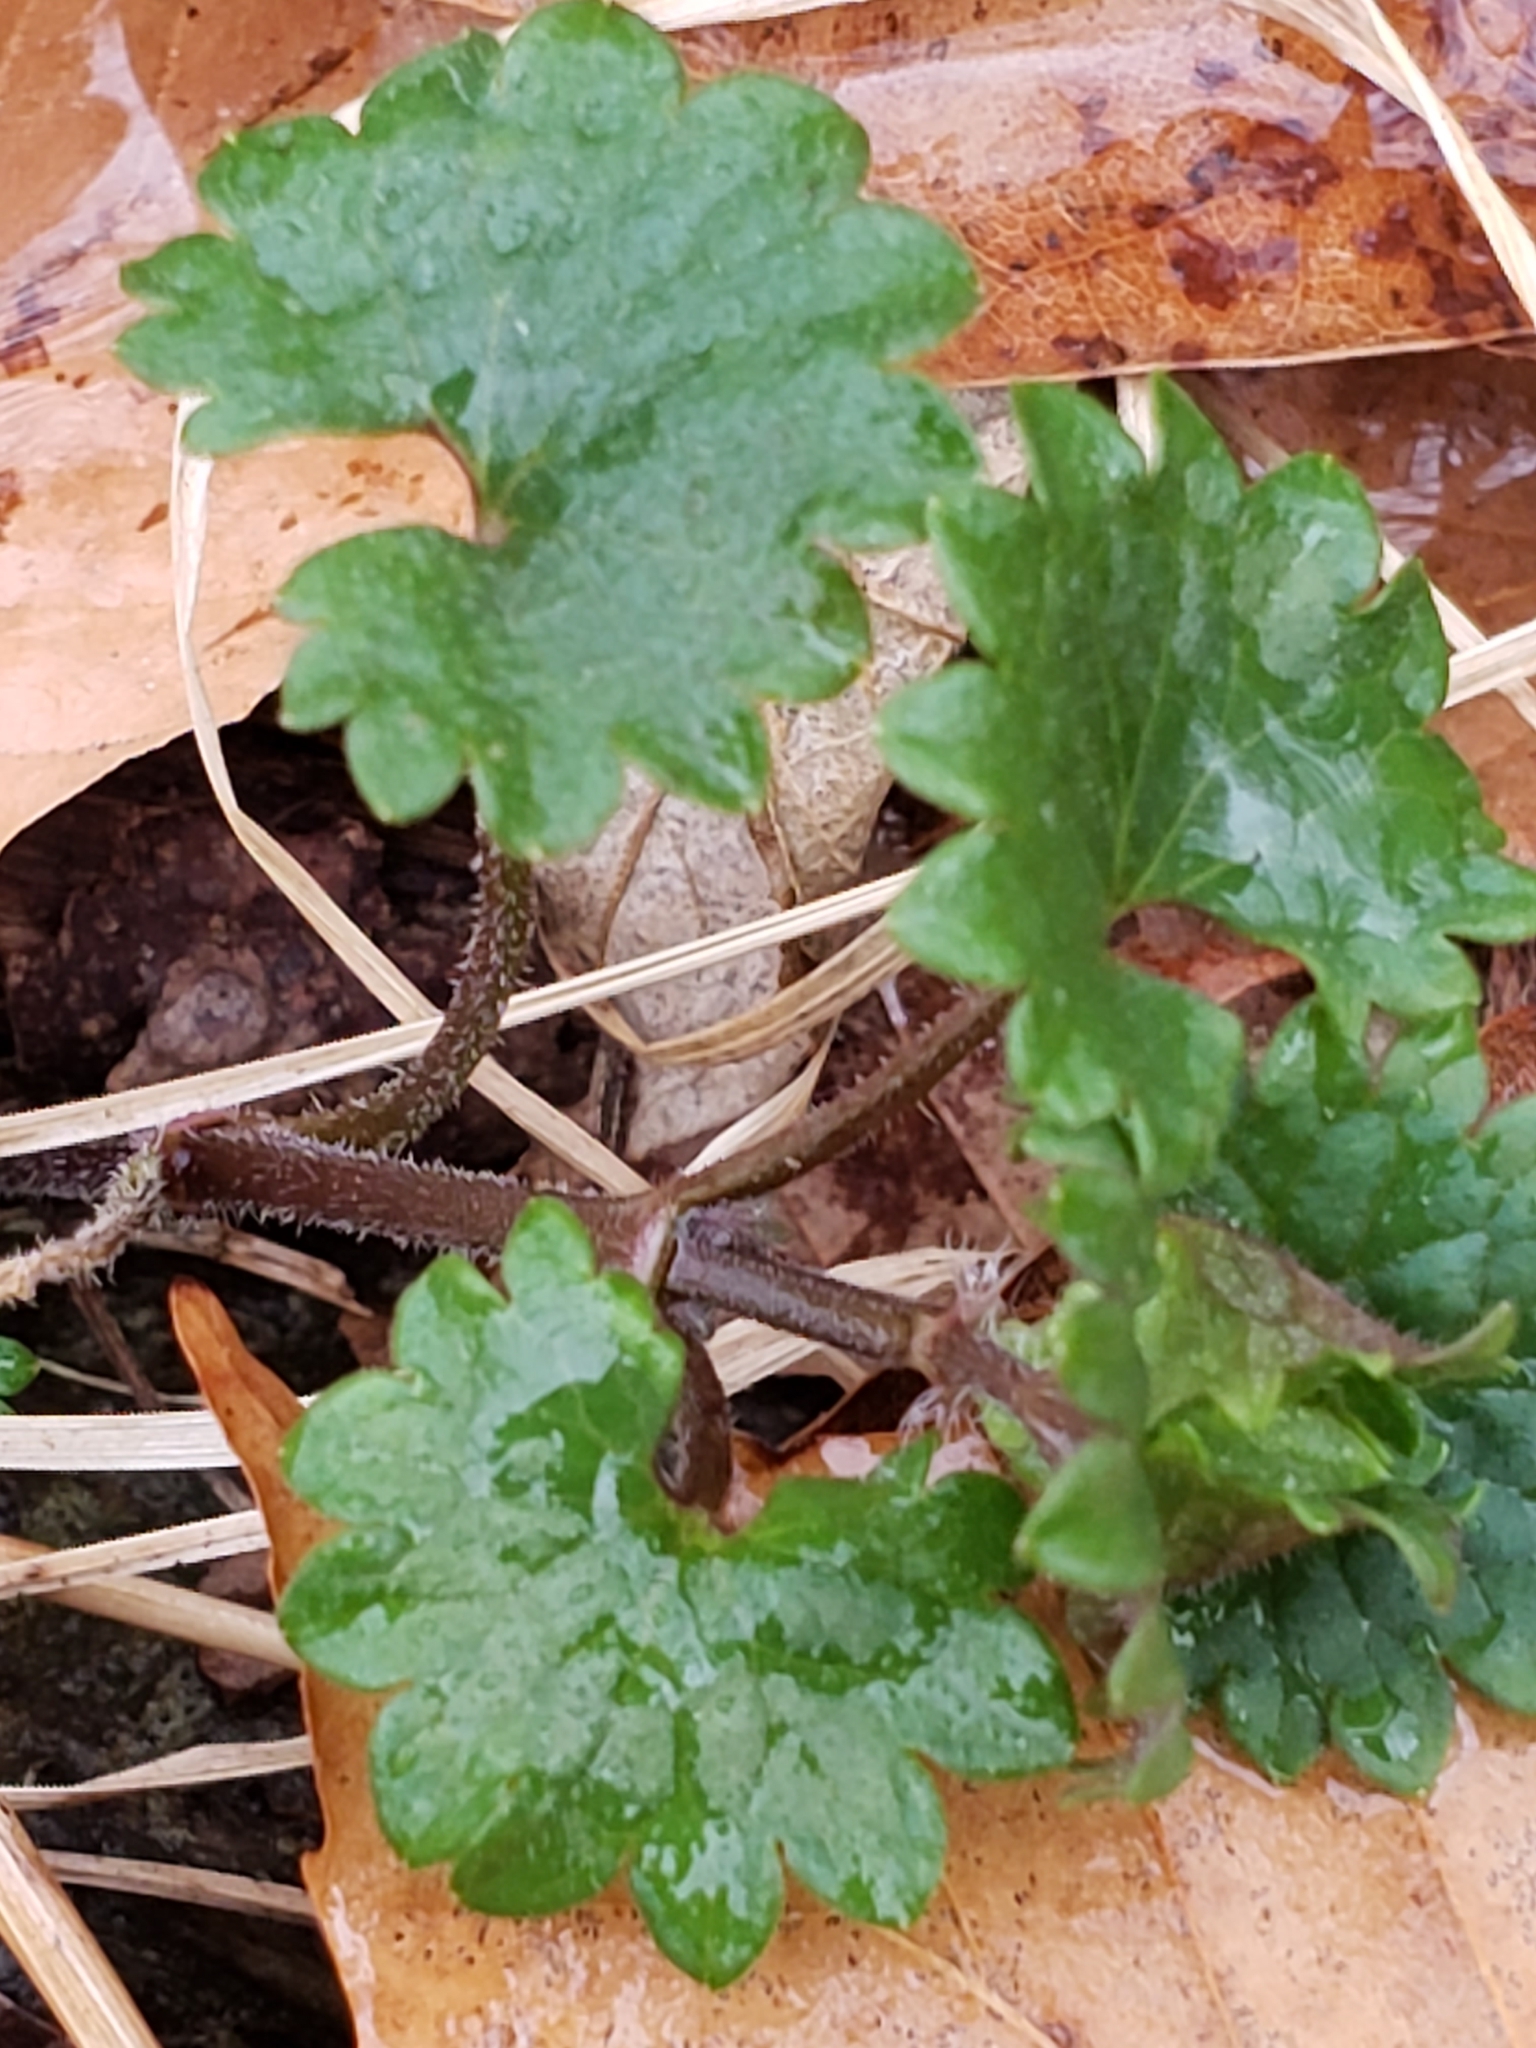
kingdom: Plantae
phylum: Tracheophyta
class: Magnoliopsida
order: Lamiales
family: Lamiaceae
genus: Glechoma
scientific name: Glechoma hederacea
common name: Ground ivy
